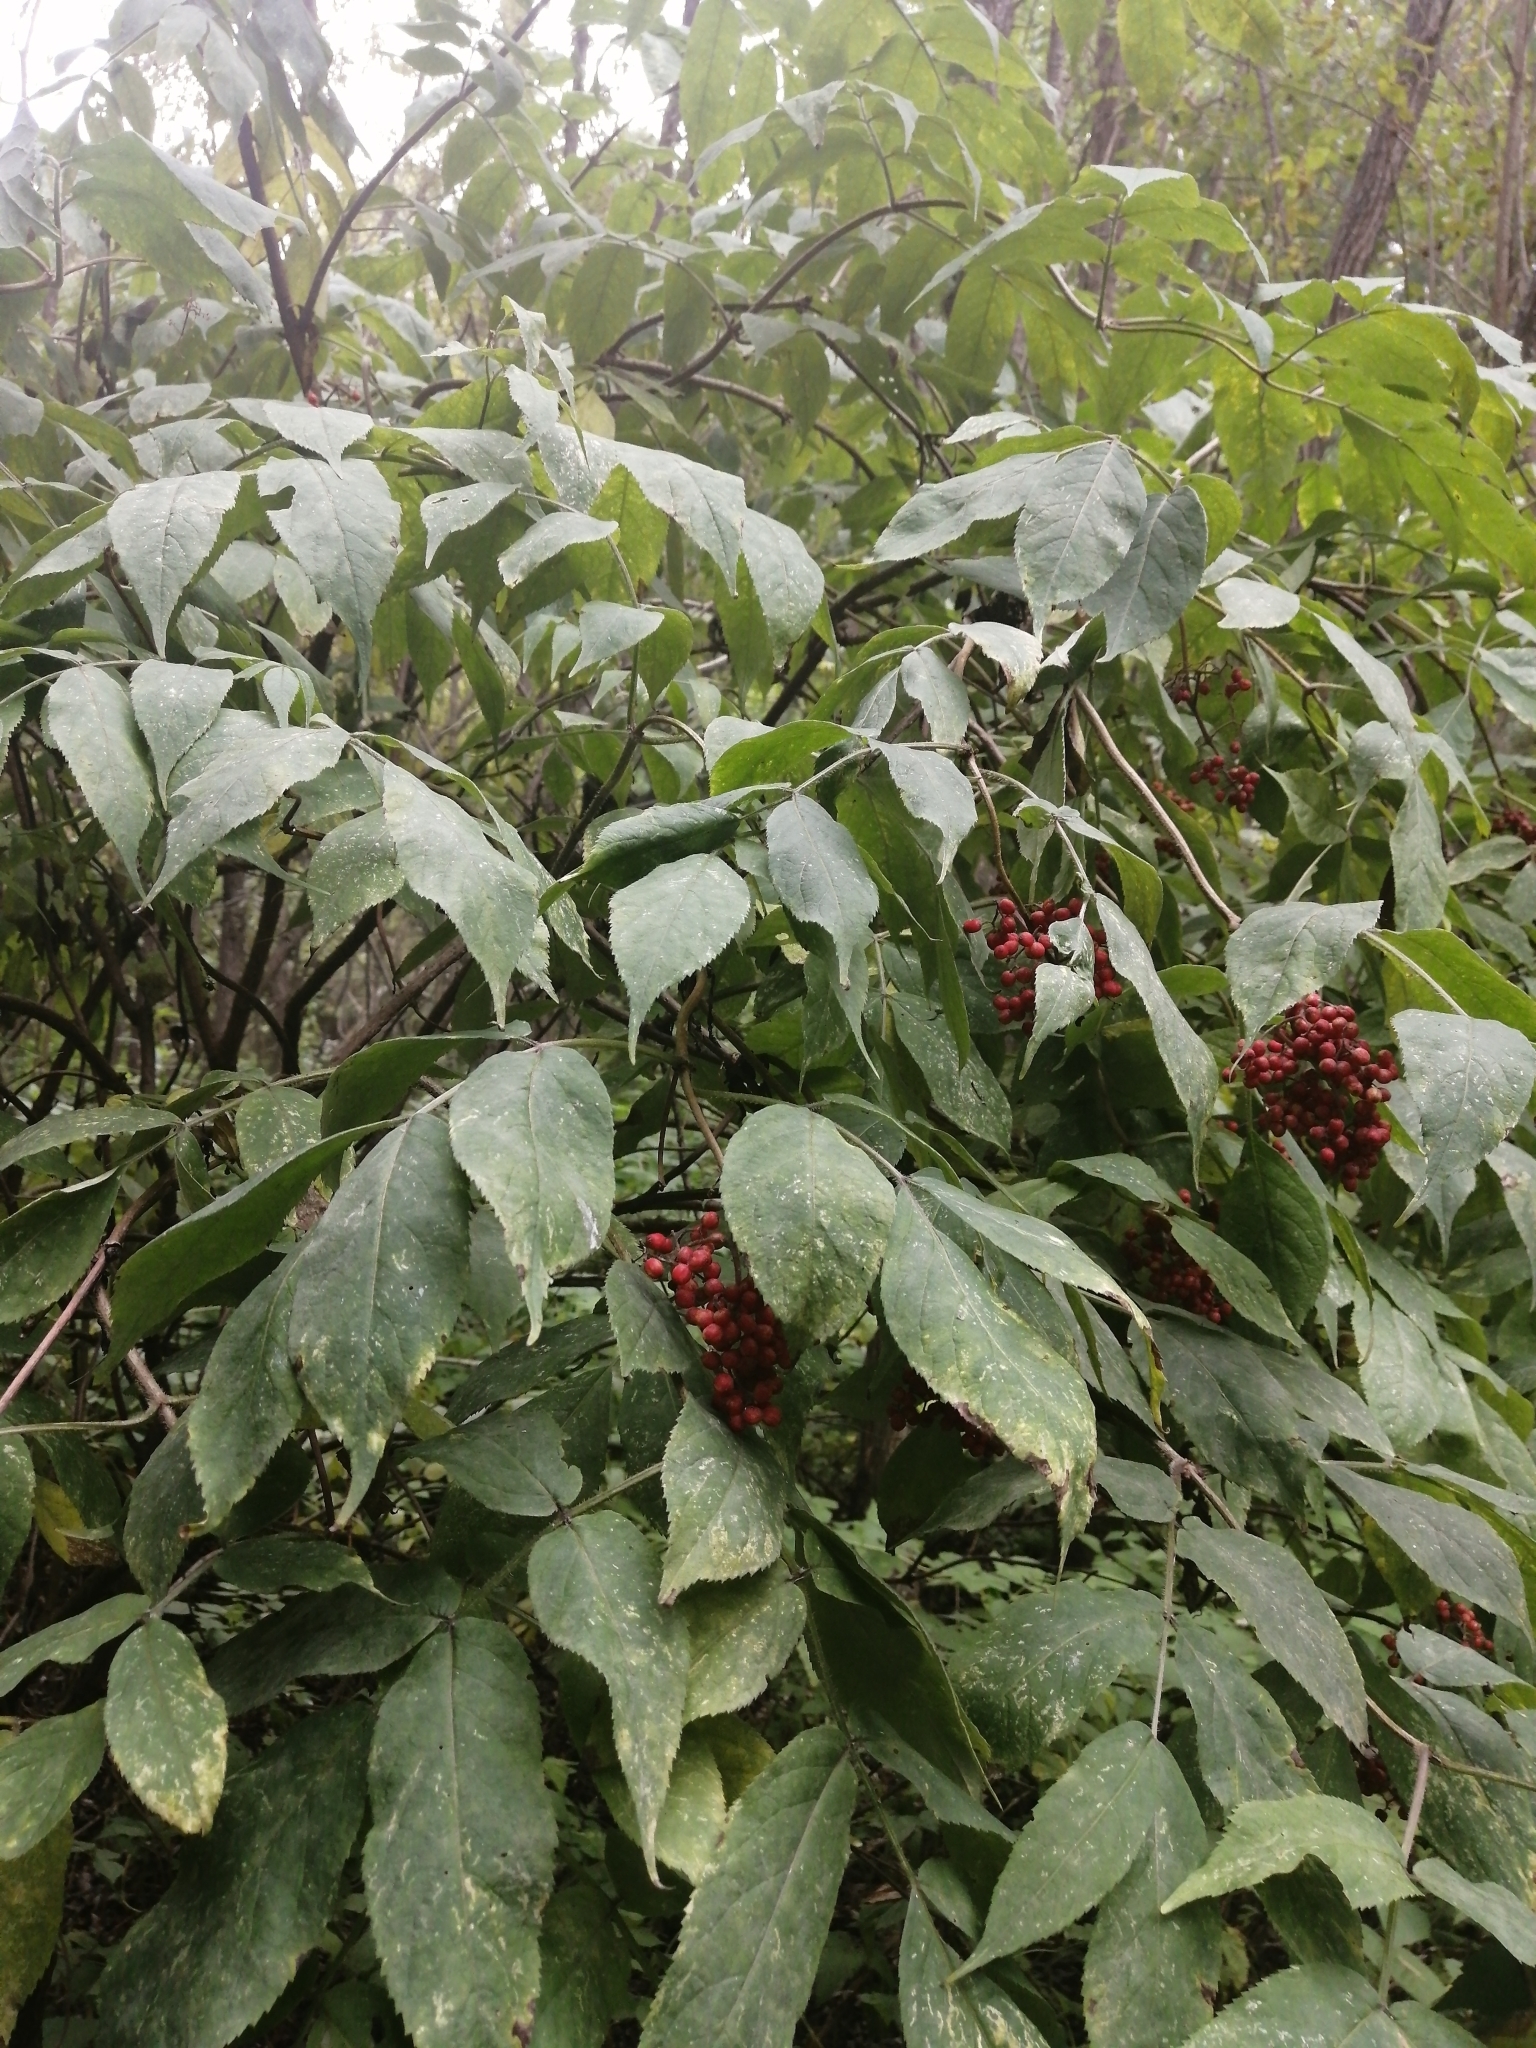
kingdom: Plantae
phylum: Tracheophyta
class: Magnoliopsida
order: Dipsacales
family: Viburnaceae
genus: Sambucus
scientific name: Sambucus sibirica
